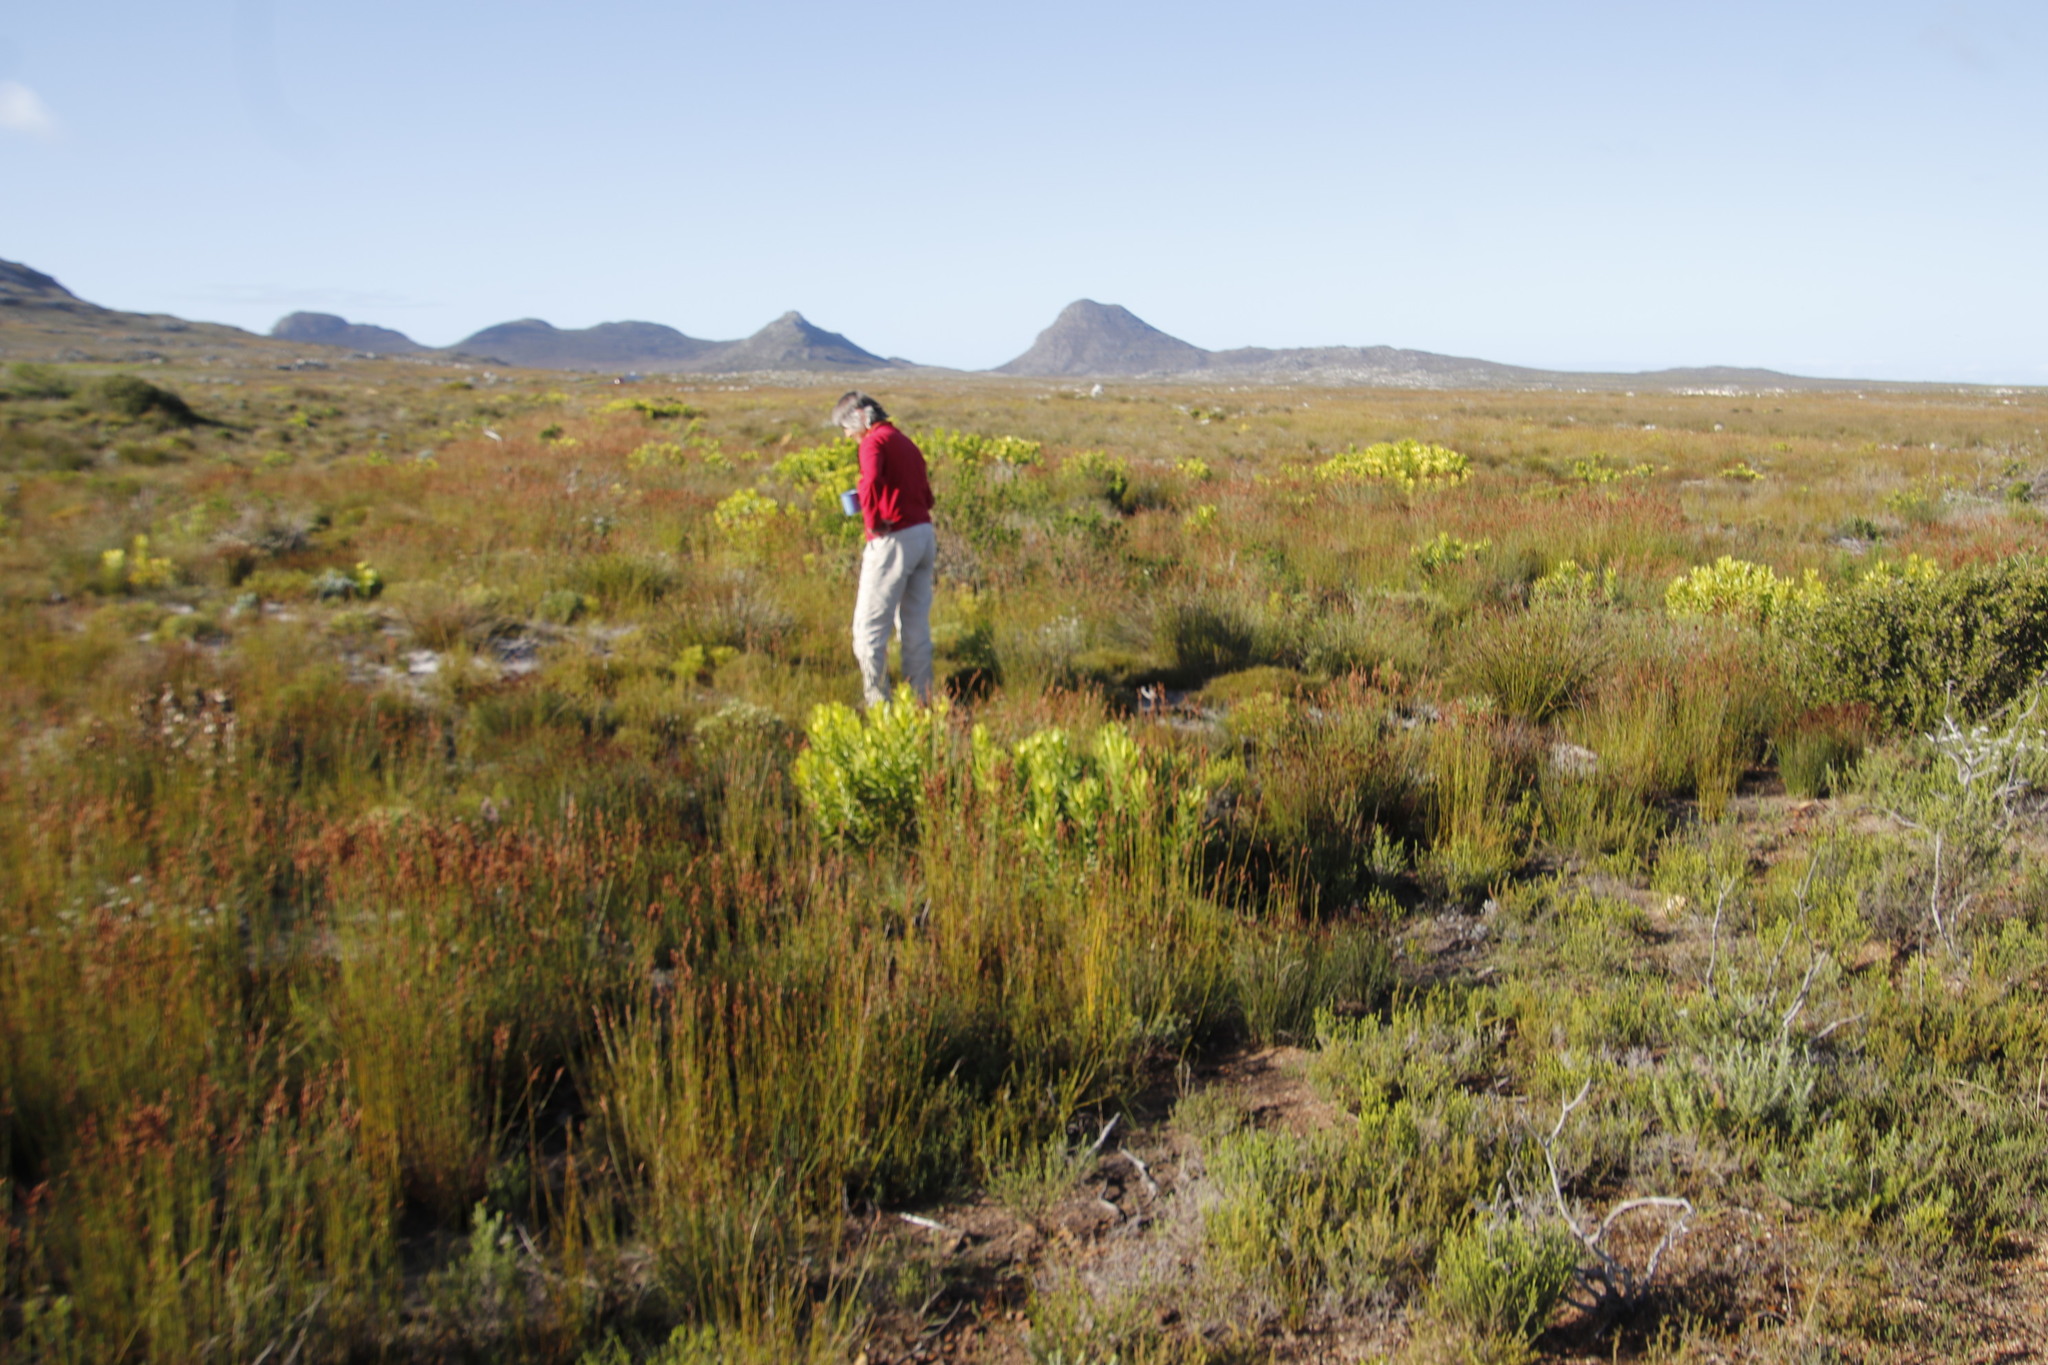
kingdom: Plantae
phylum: Tracheophyta
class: Magnoliopsida
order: Ericales
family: Ericaceae
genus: Erica
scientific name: Erica muscosa
